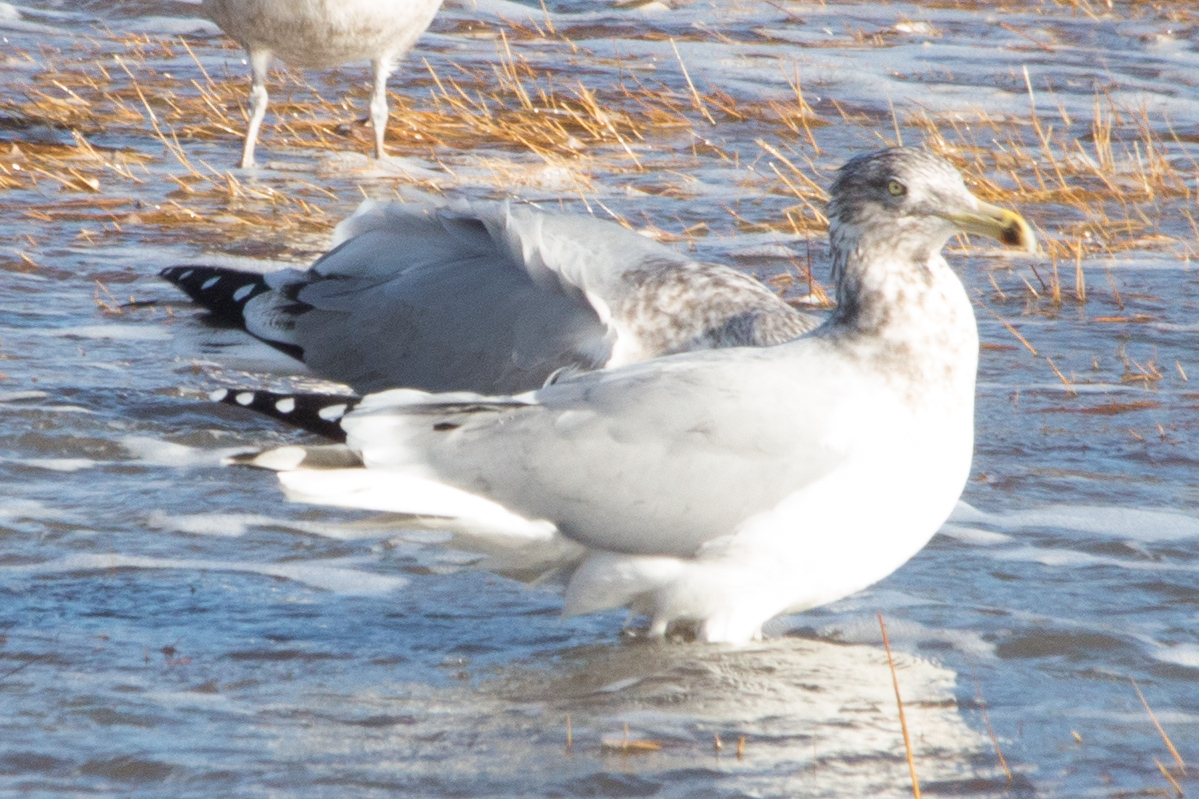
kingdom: Animalia
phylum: Chordata
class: Aves
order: Charadriiformes
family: Laridae
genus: Larus
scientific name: Larus smithsonianus
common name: American herring gull
